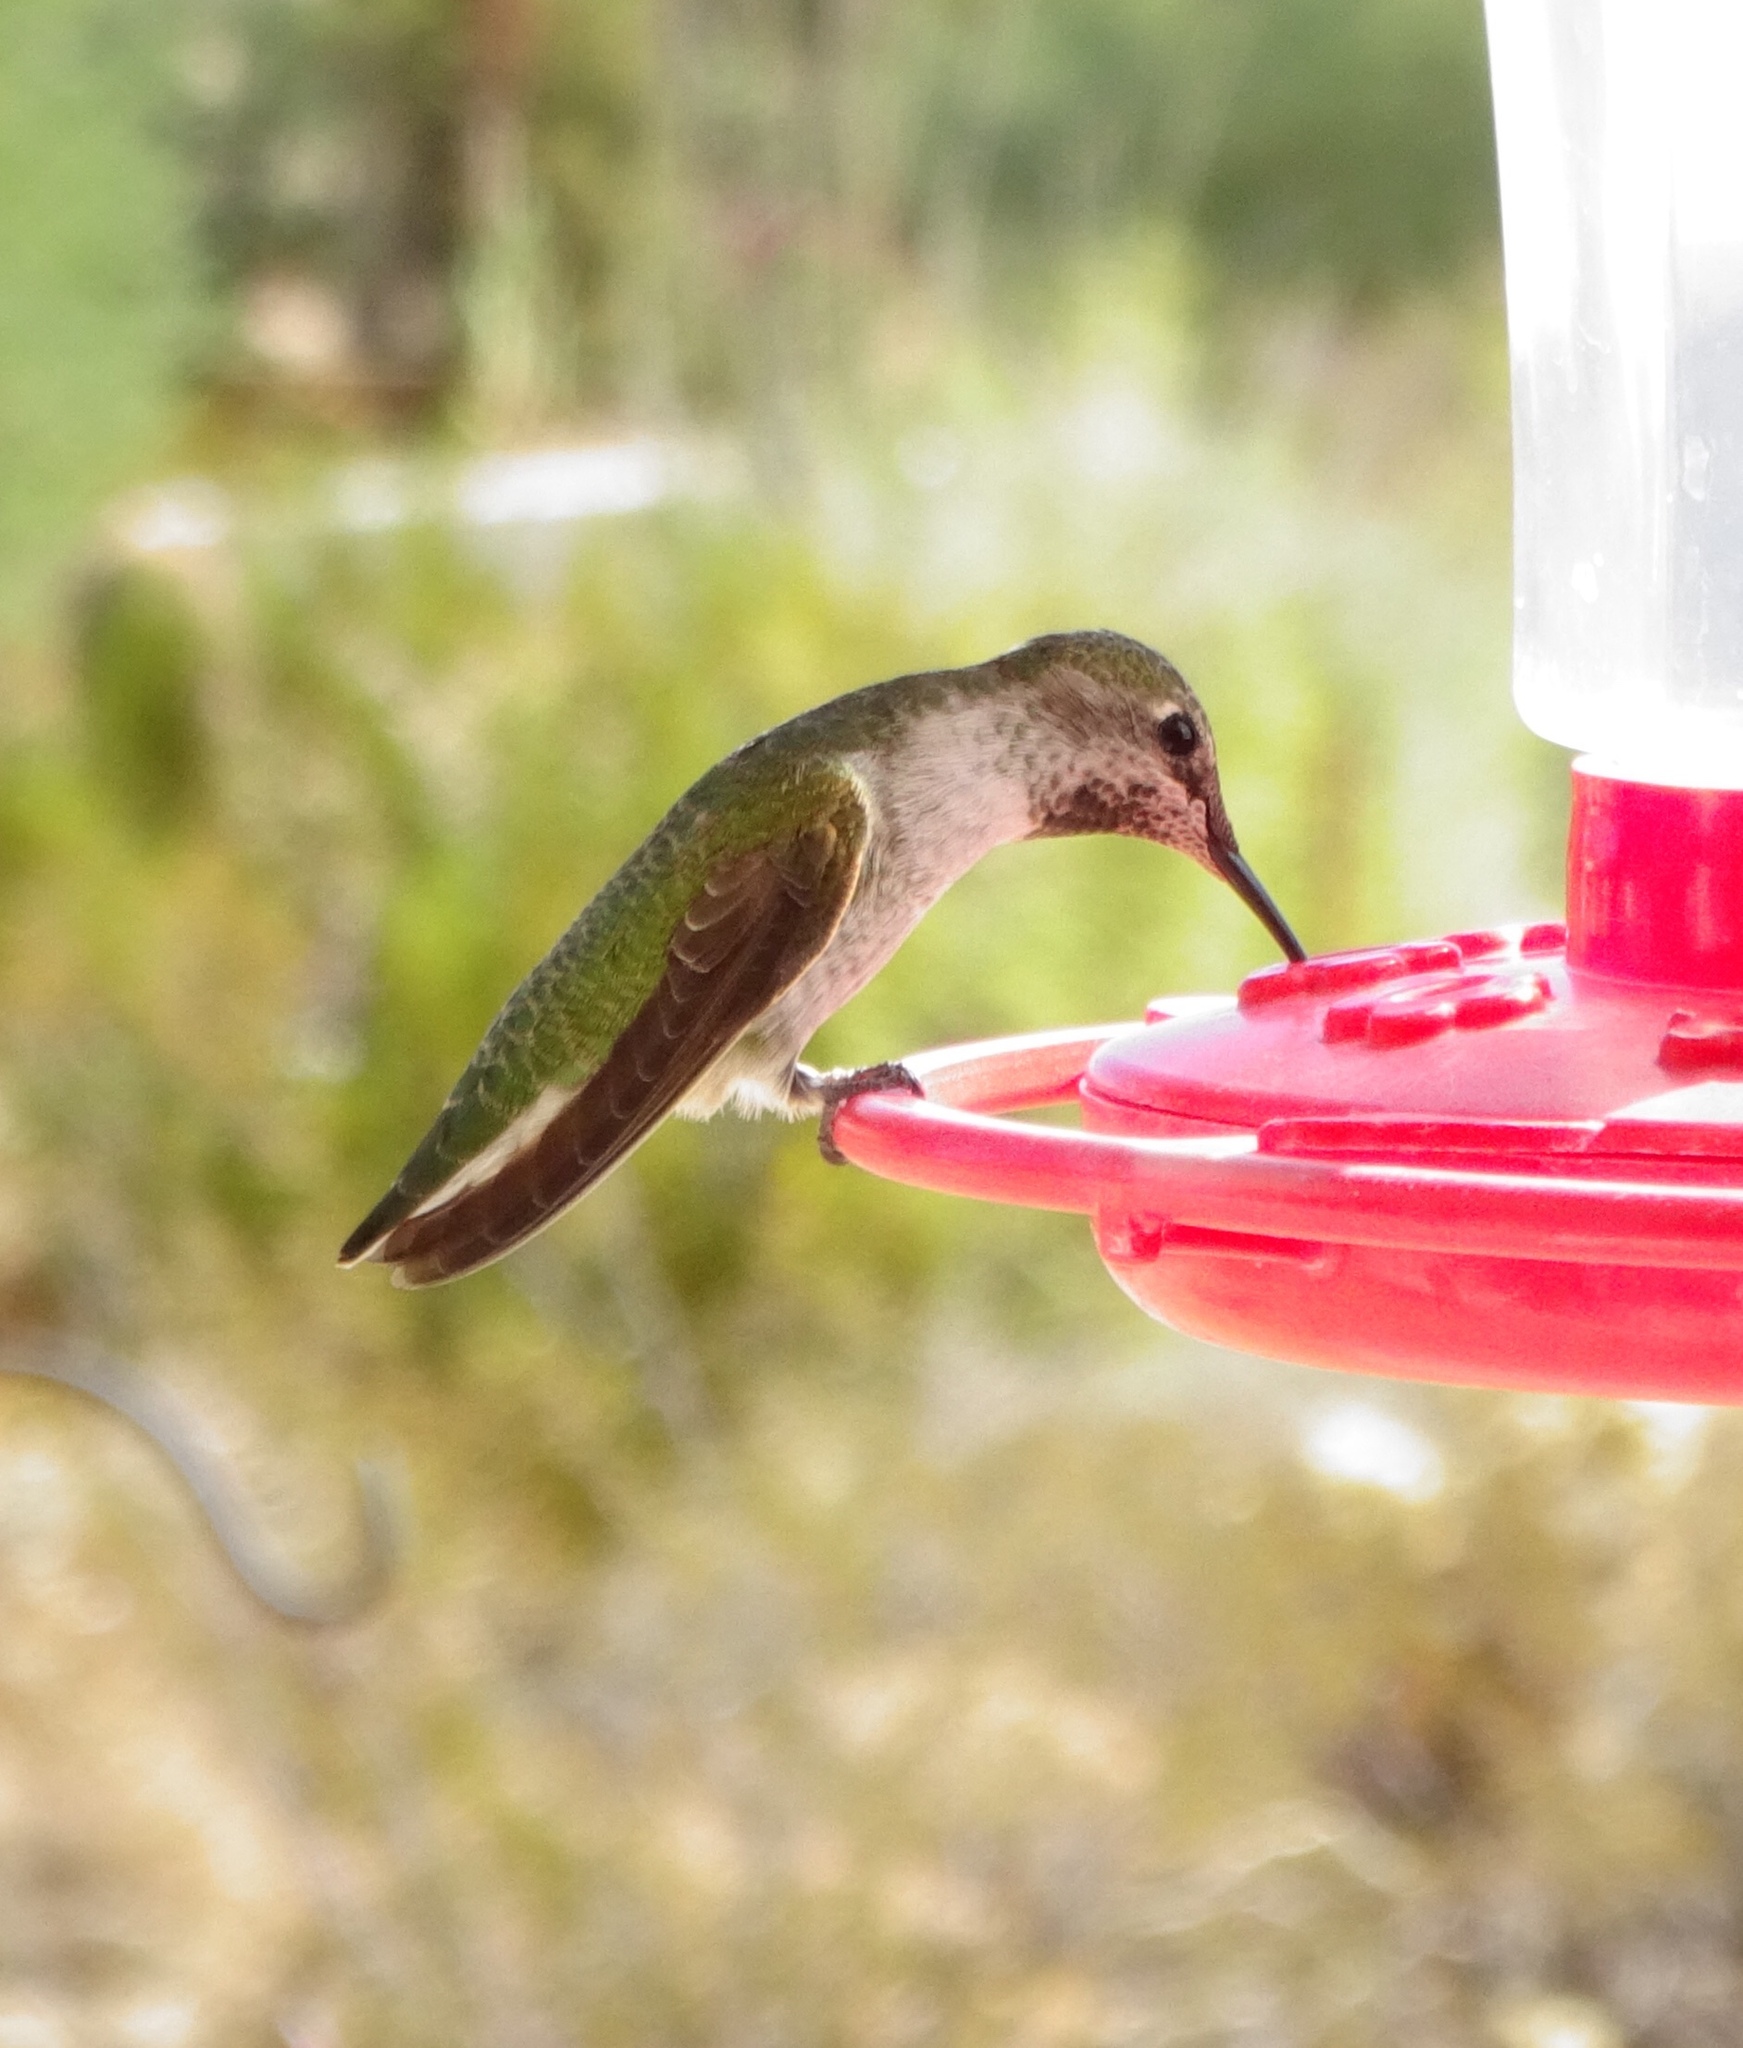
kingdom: Animalia
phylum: Chordata
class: Aves
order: Apodiformes
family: Trochilidae
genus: Calypte
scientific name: Calypte anna
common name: Anna's hummingbird
